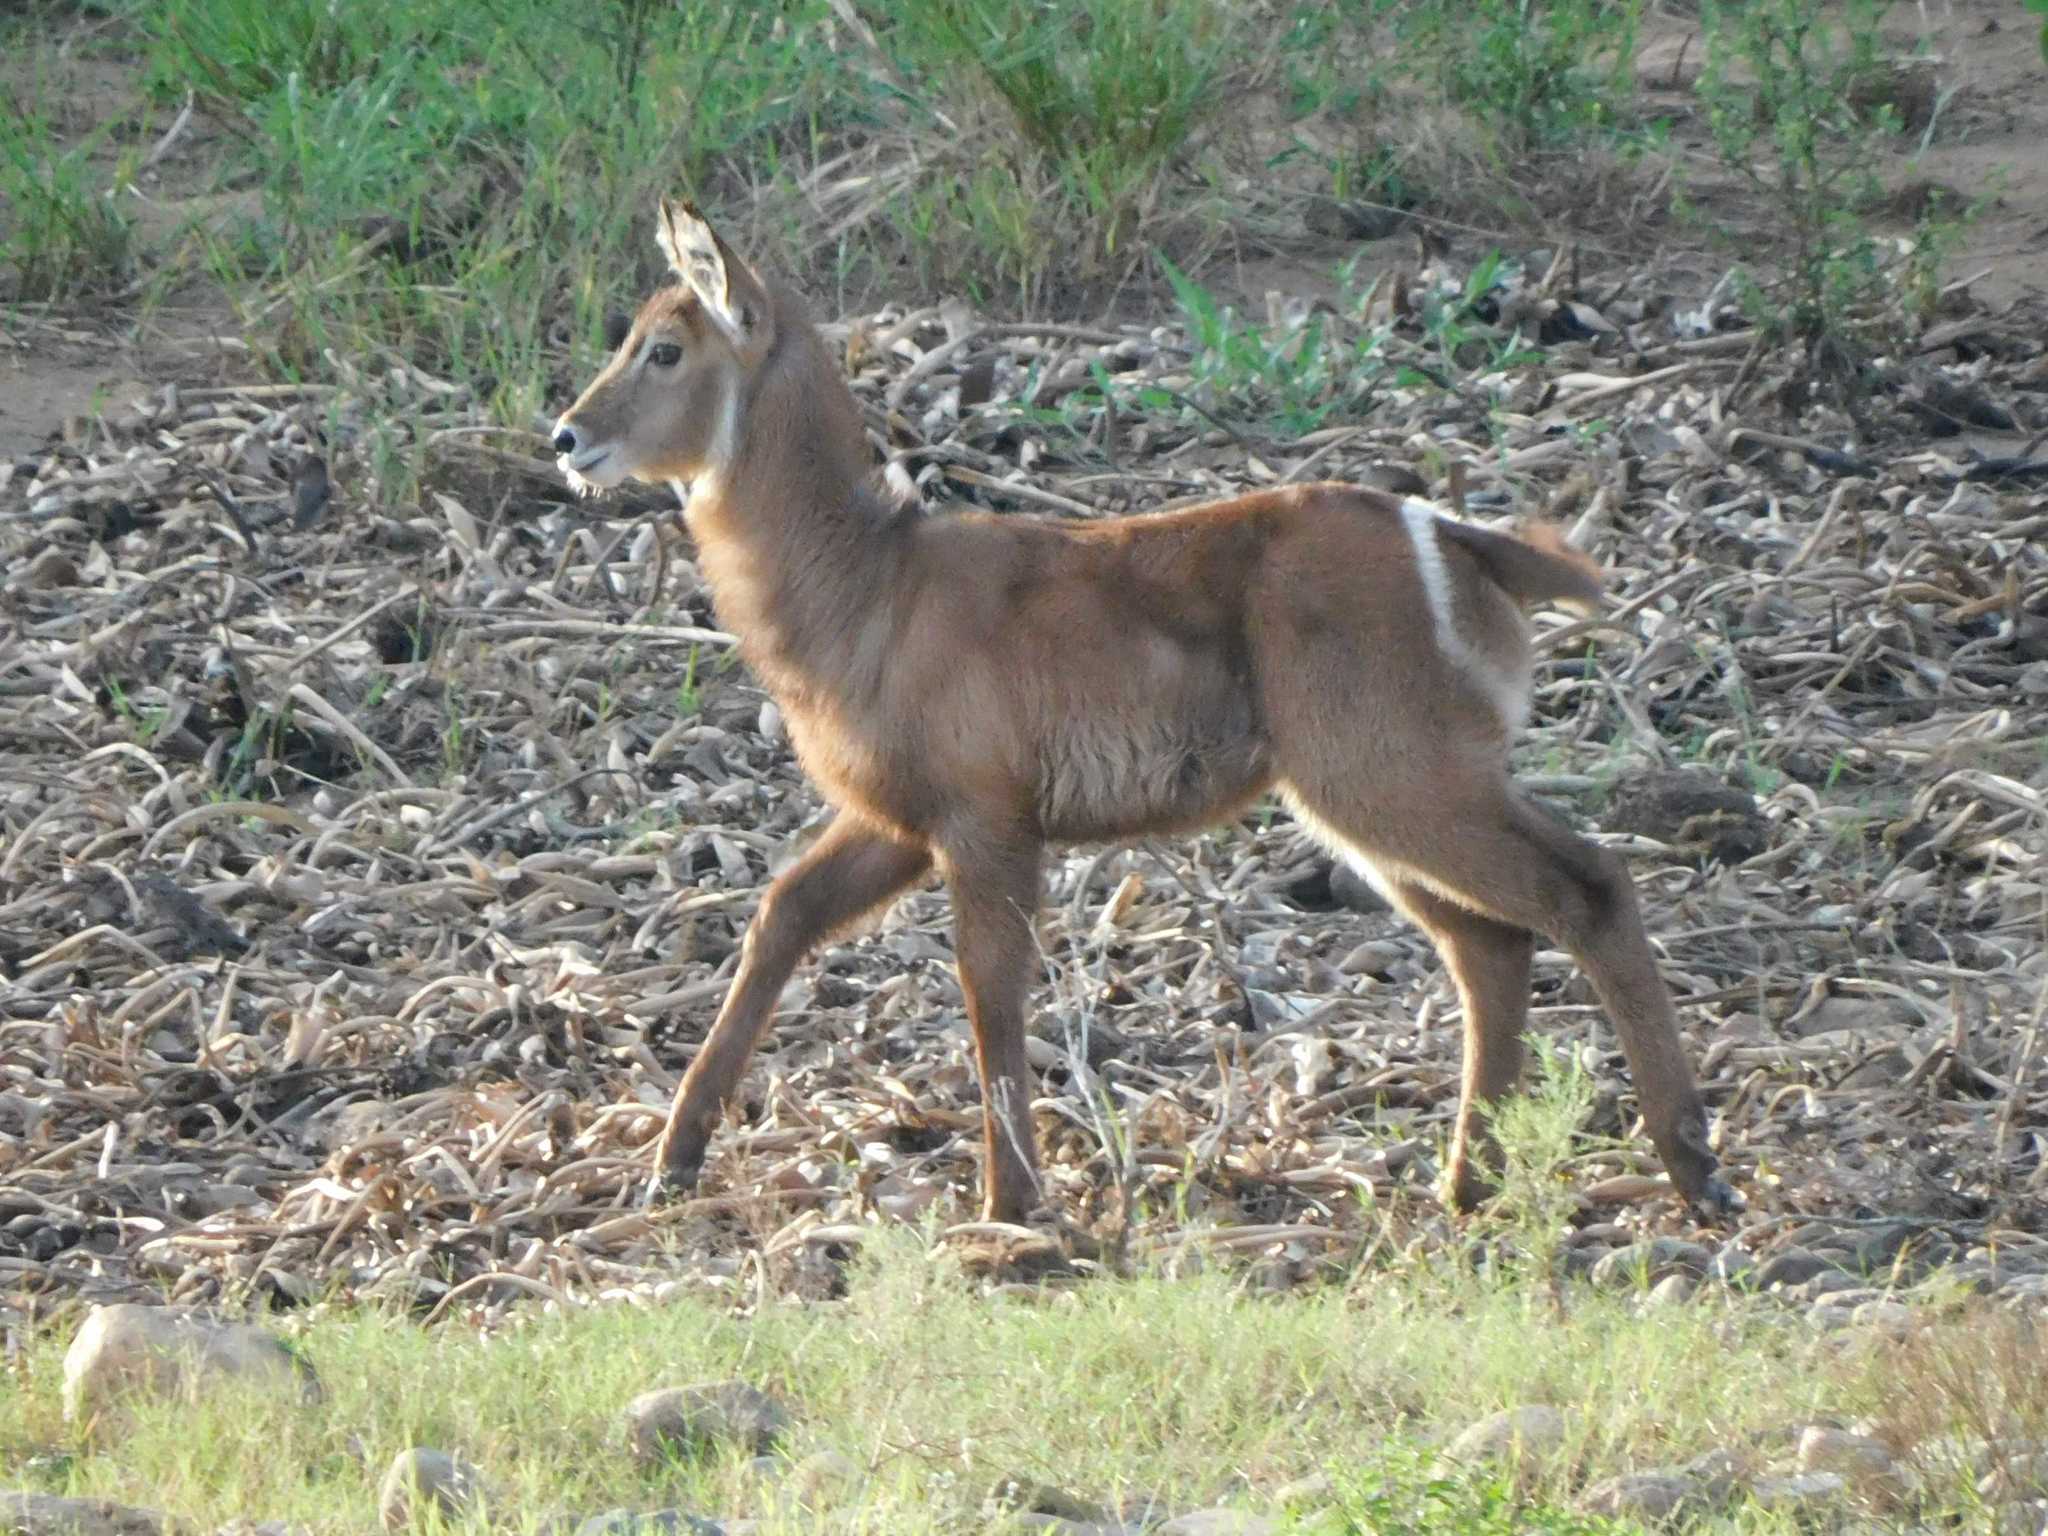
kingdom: Animalia
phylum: Chordata
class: Mammalia
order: Artiodactyla
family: Bovidae
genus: Kobus
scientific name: Kobus ellipsiprymnus
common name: Waterbuck
